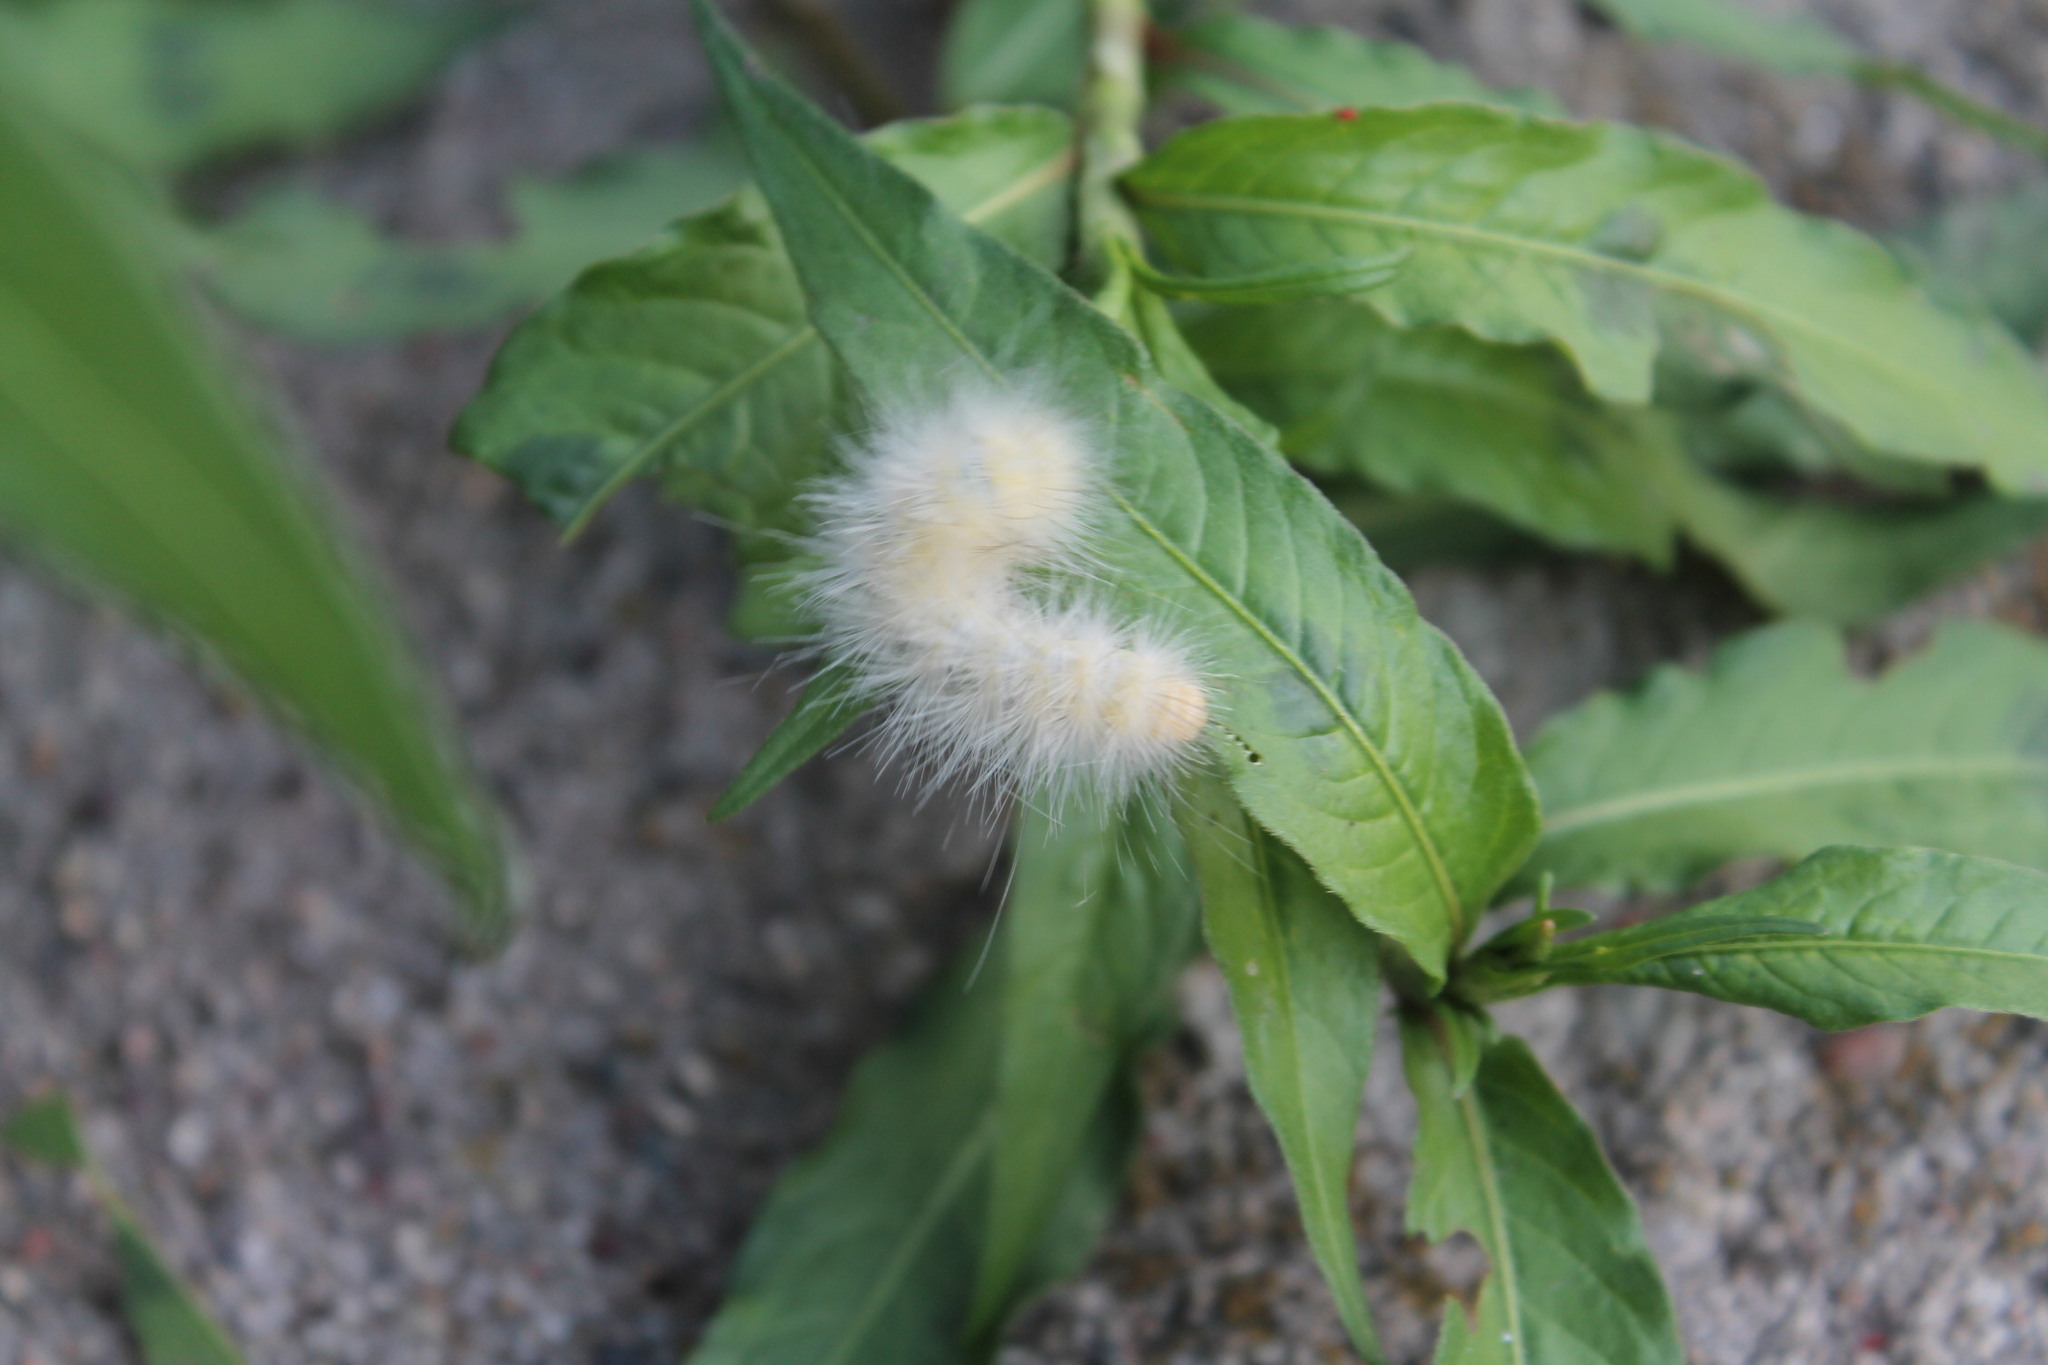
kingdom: Animalia
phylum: Arthropoda
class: Insecta
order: Lepidoptera
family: Erebidae
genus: Spilosoma
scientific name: Spilosoma virginica
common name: Virginia tiger moth
